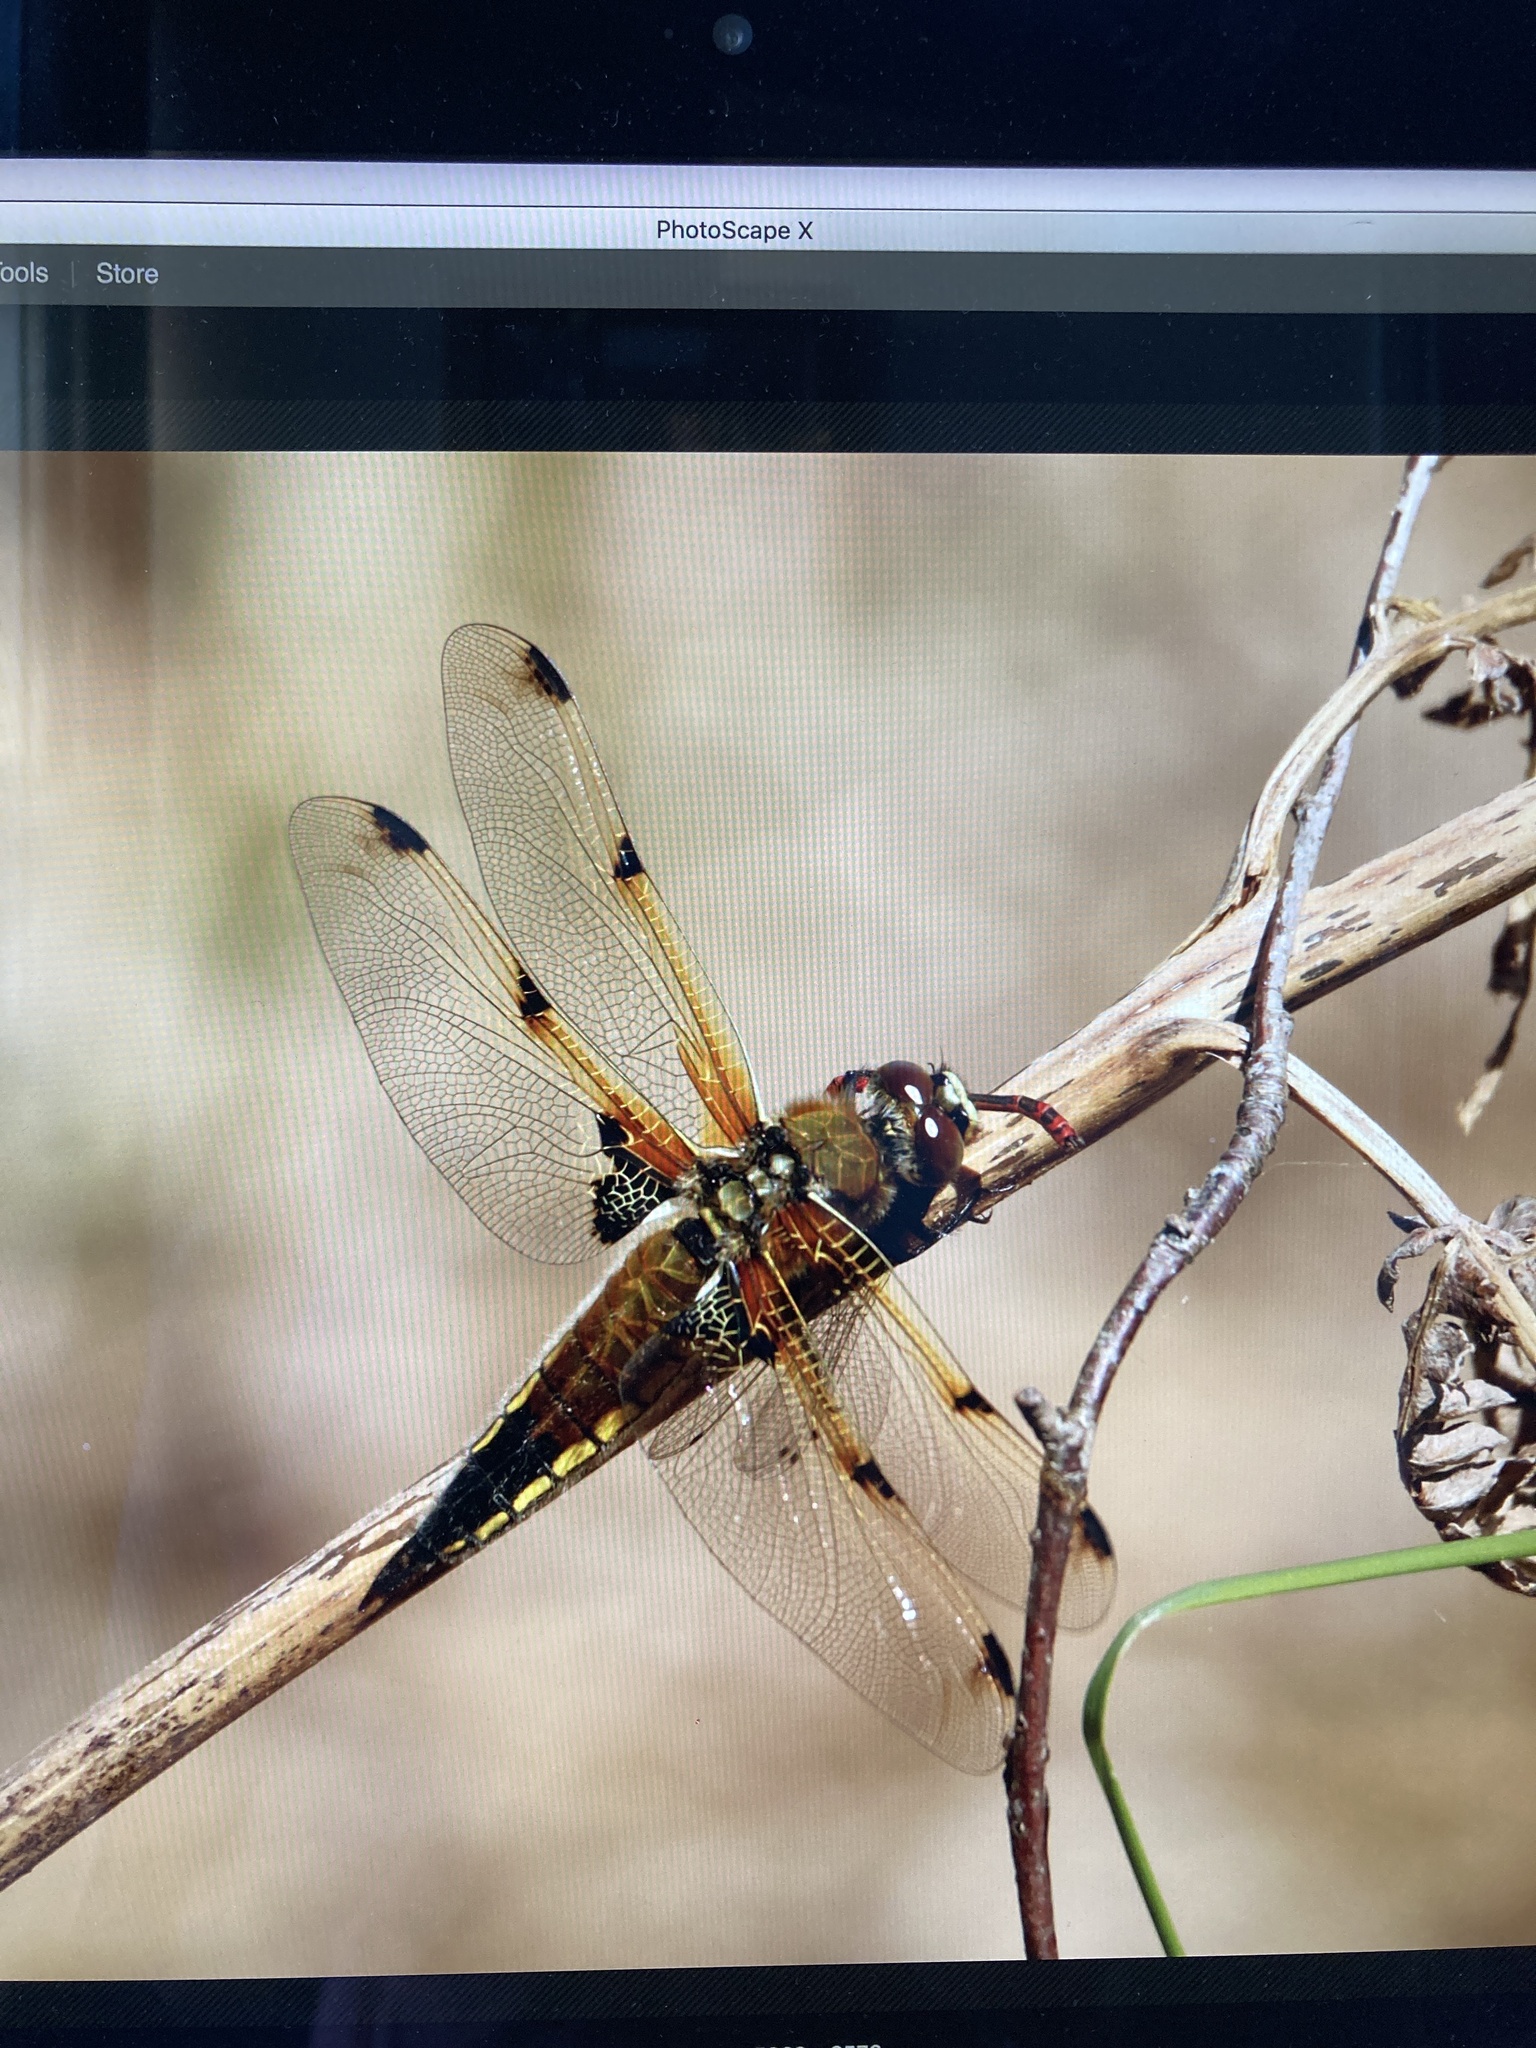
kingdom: Animalia
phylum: Arthropoda
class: Insecta
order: Odonata
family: Libellulidae
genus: Libellula
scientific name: Libellula quadrimaculata
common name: Four-spotted chaser
